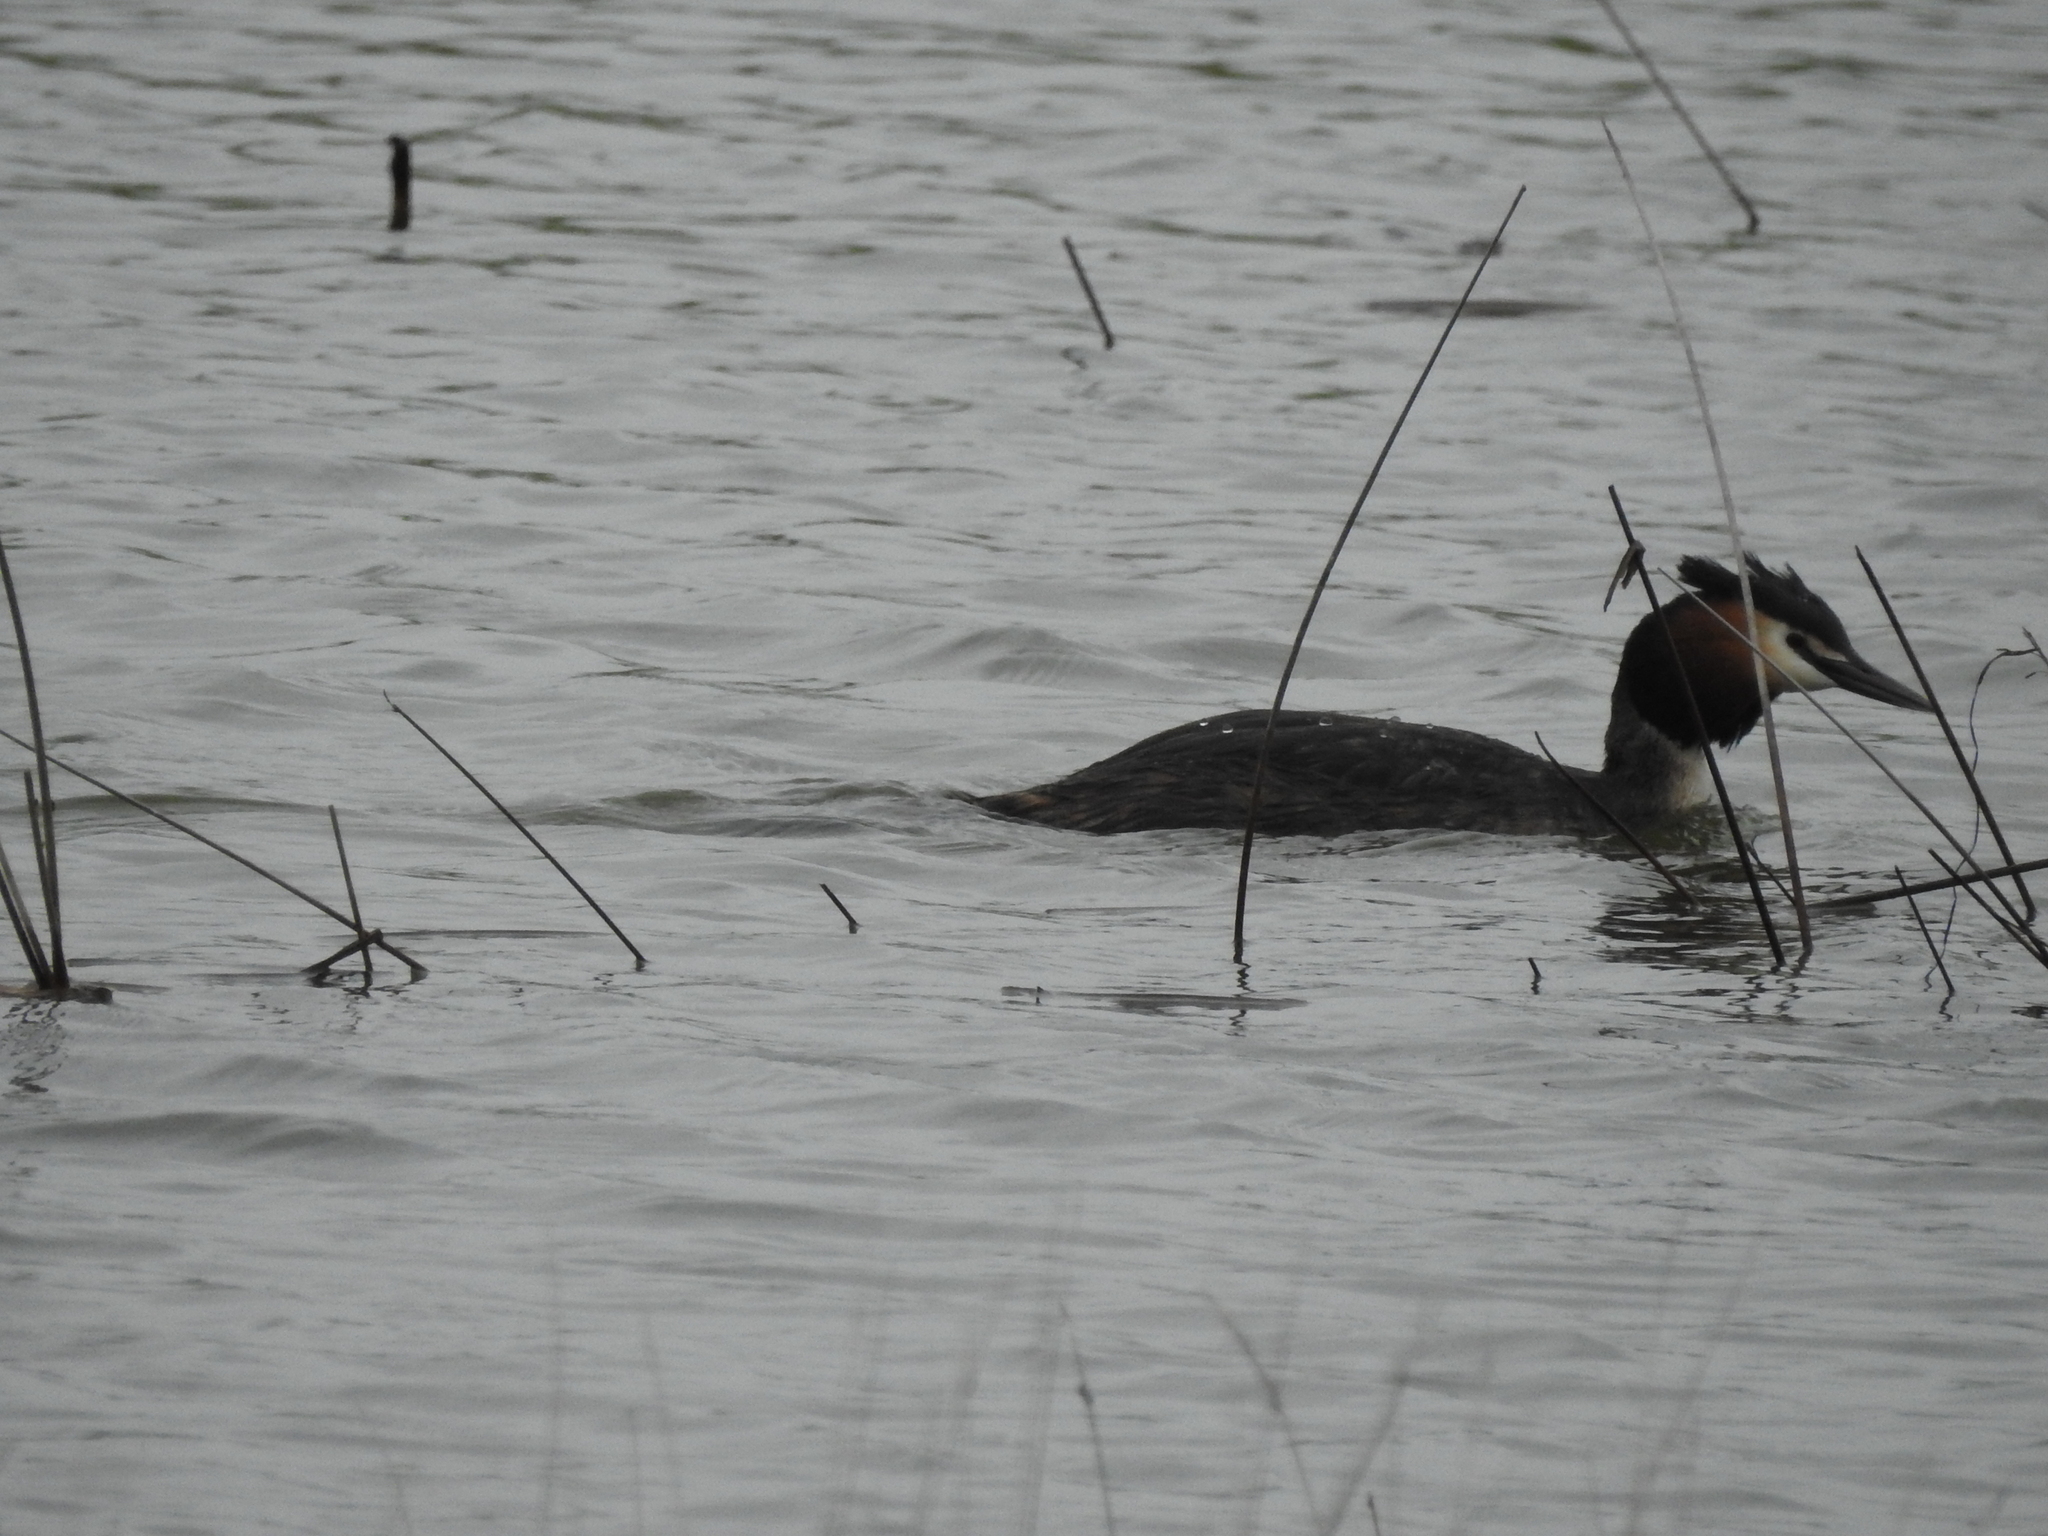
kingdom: Animalia
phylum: Chordata
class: Aves
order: Podicipediformes
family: Podicipedidae
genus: Podiceps
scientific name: Podiceps cristatus
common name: Great crested grebe
